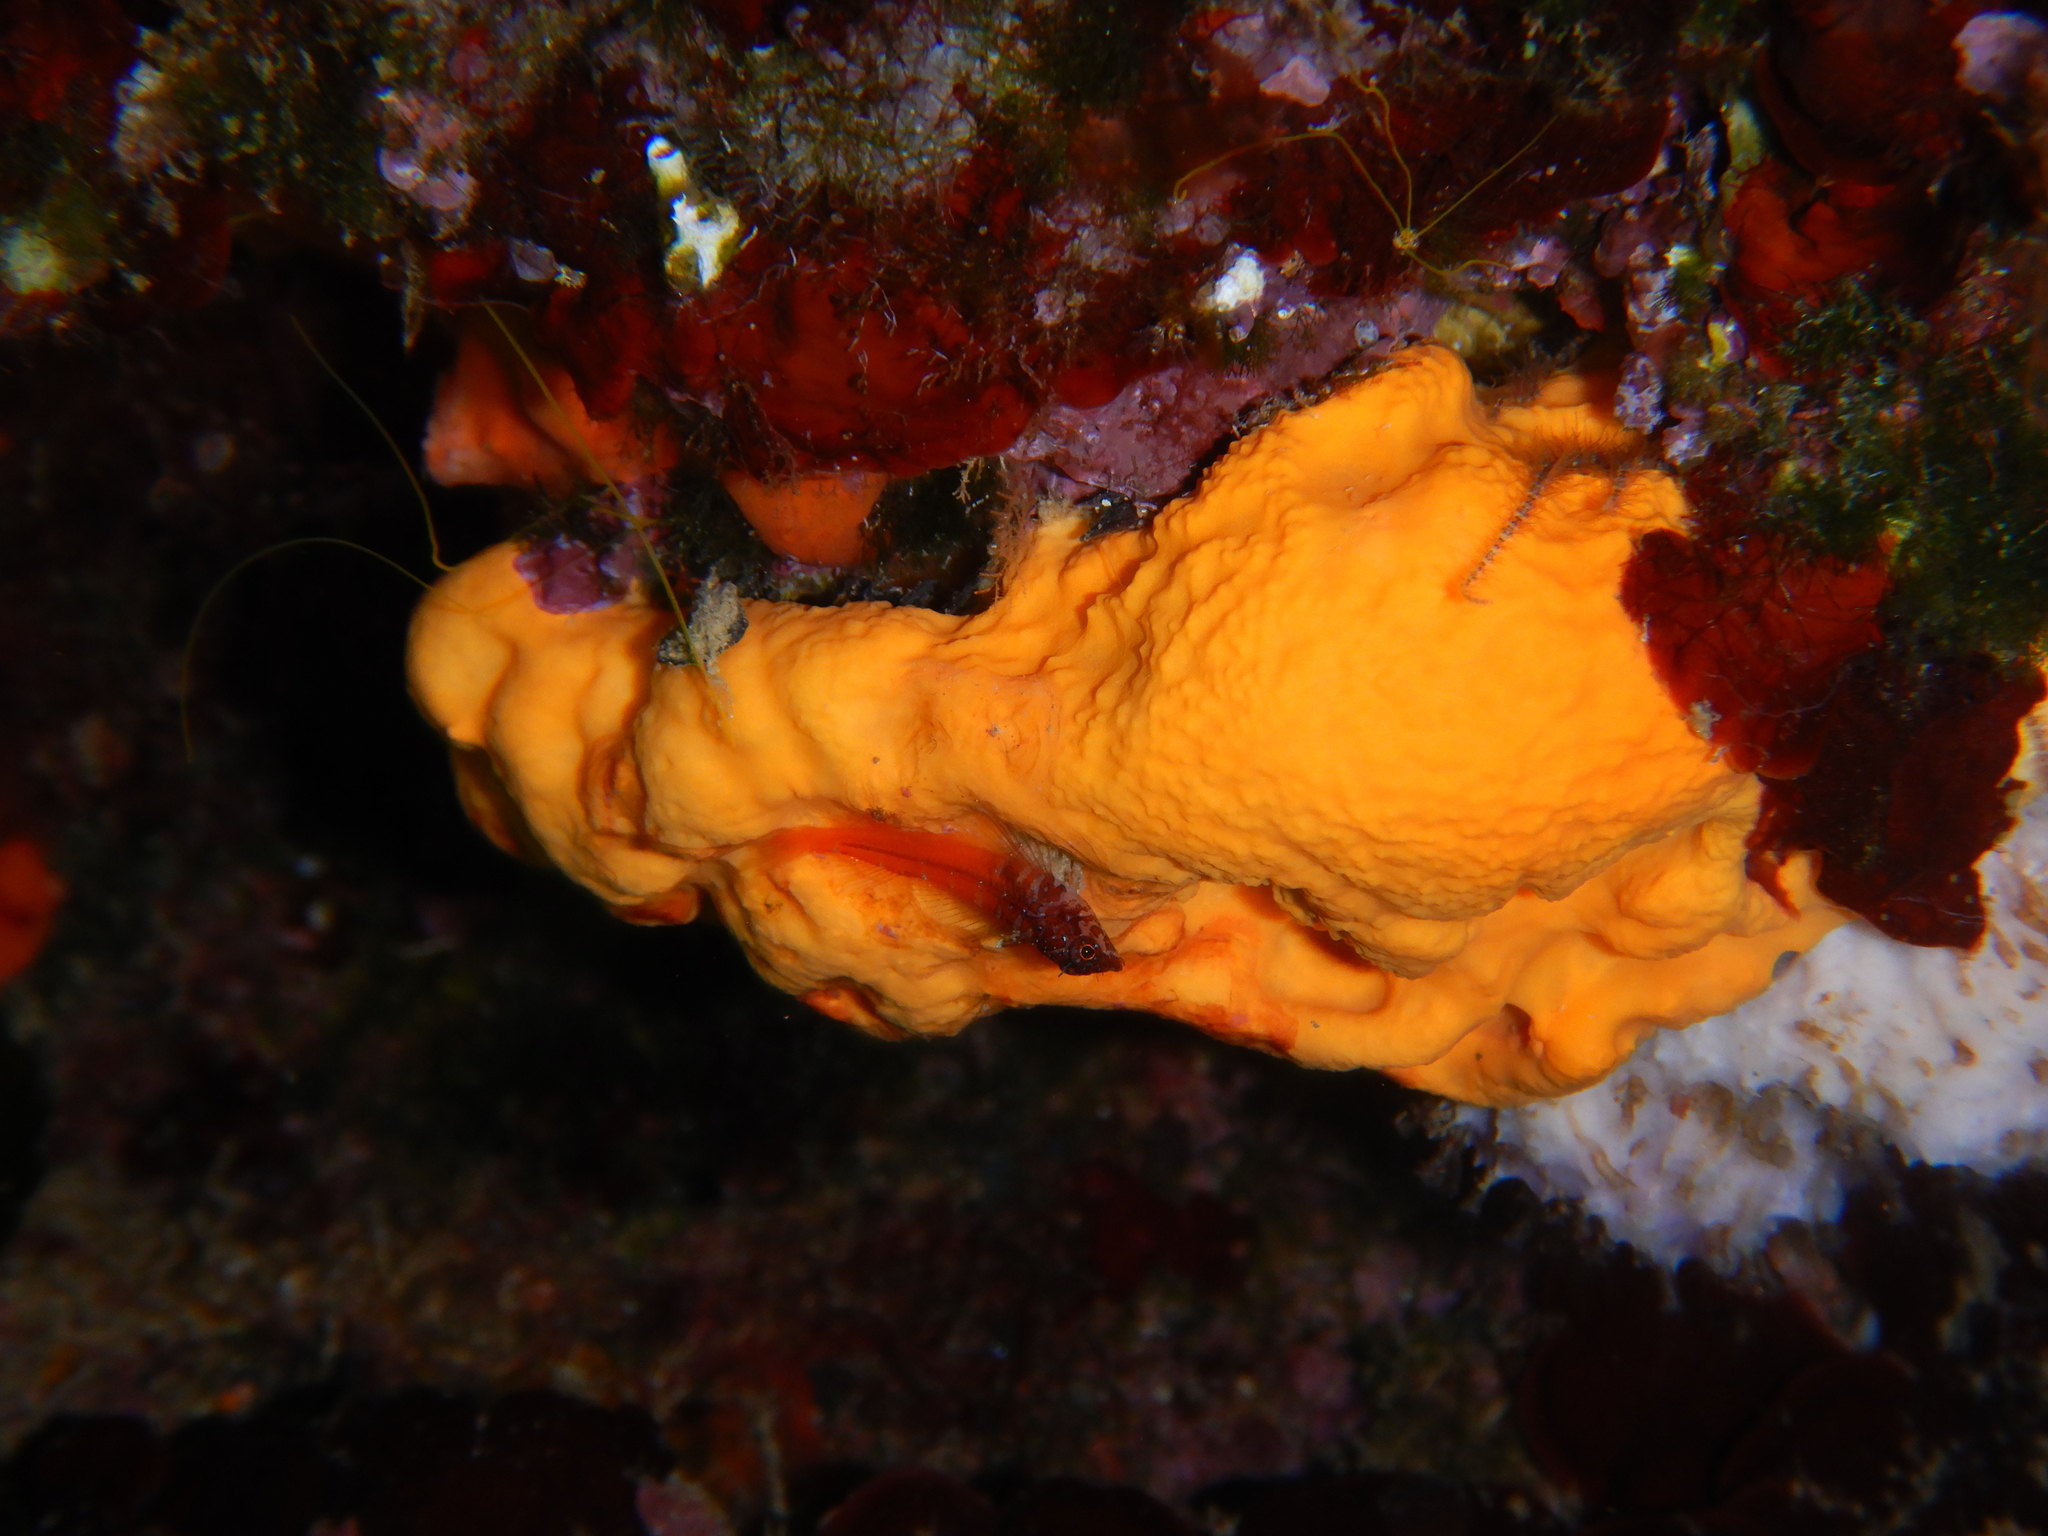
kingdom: Animalia
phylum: Porifera
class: Demospongiae
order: Agelasida
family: Agelasidae
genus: Agelas
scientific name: Agelas oroides
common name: Maltese sponge
